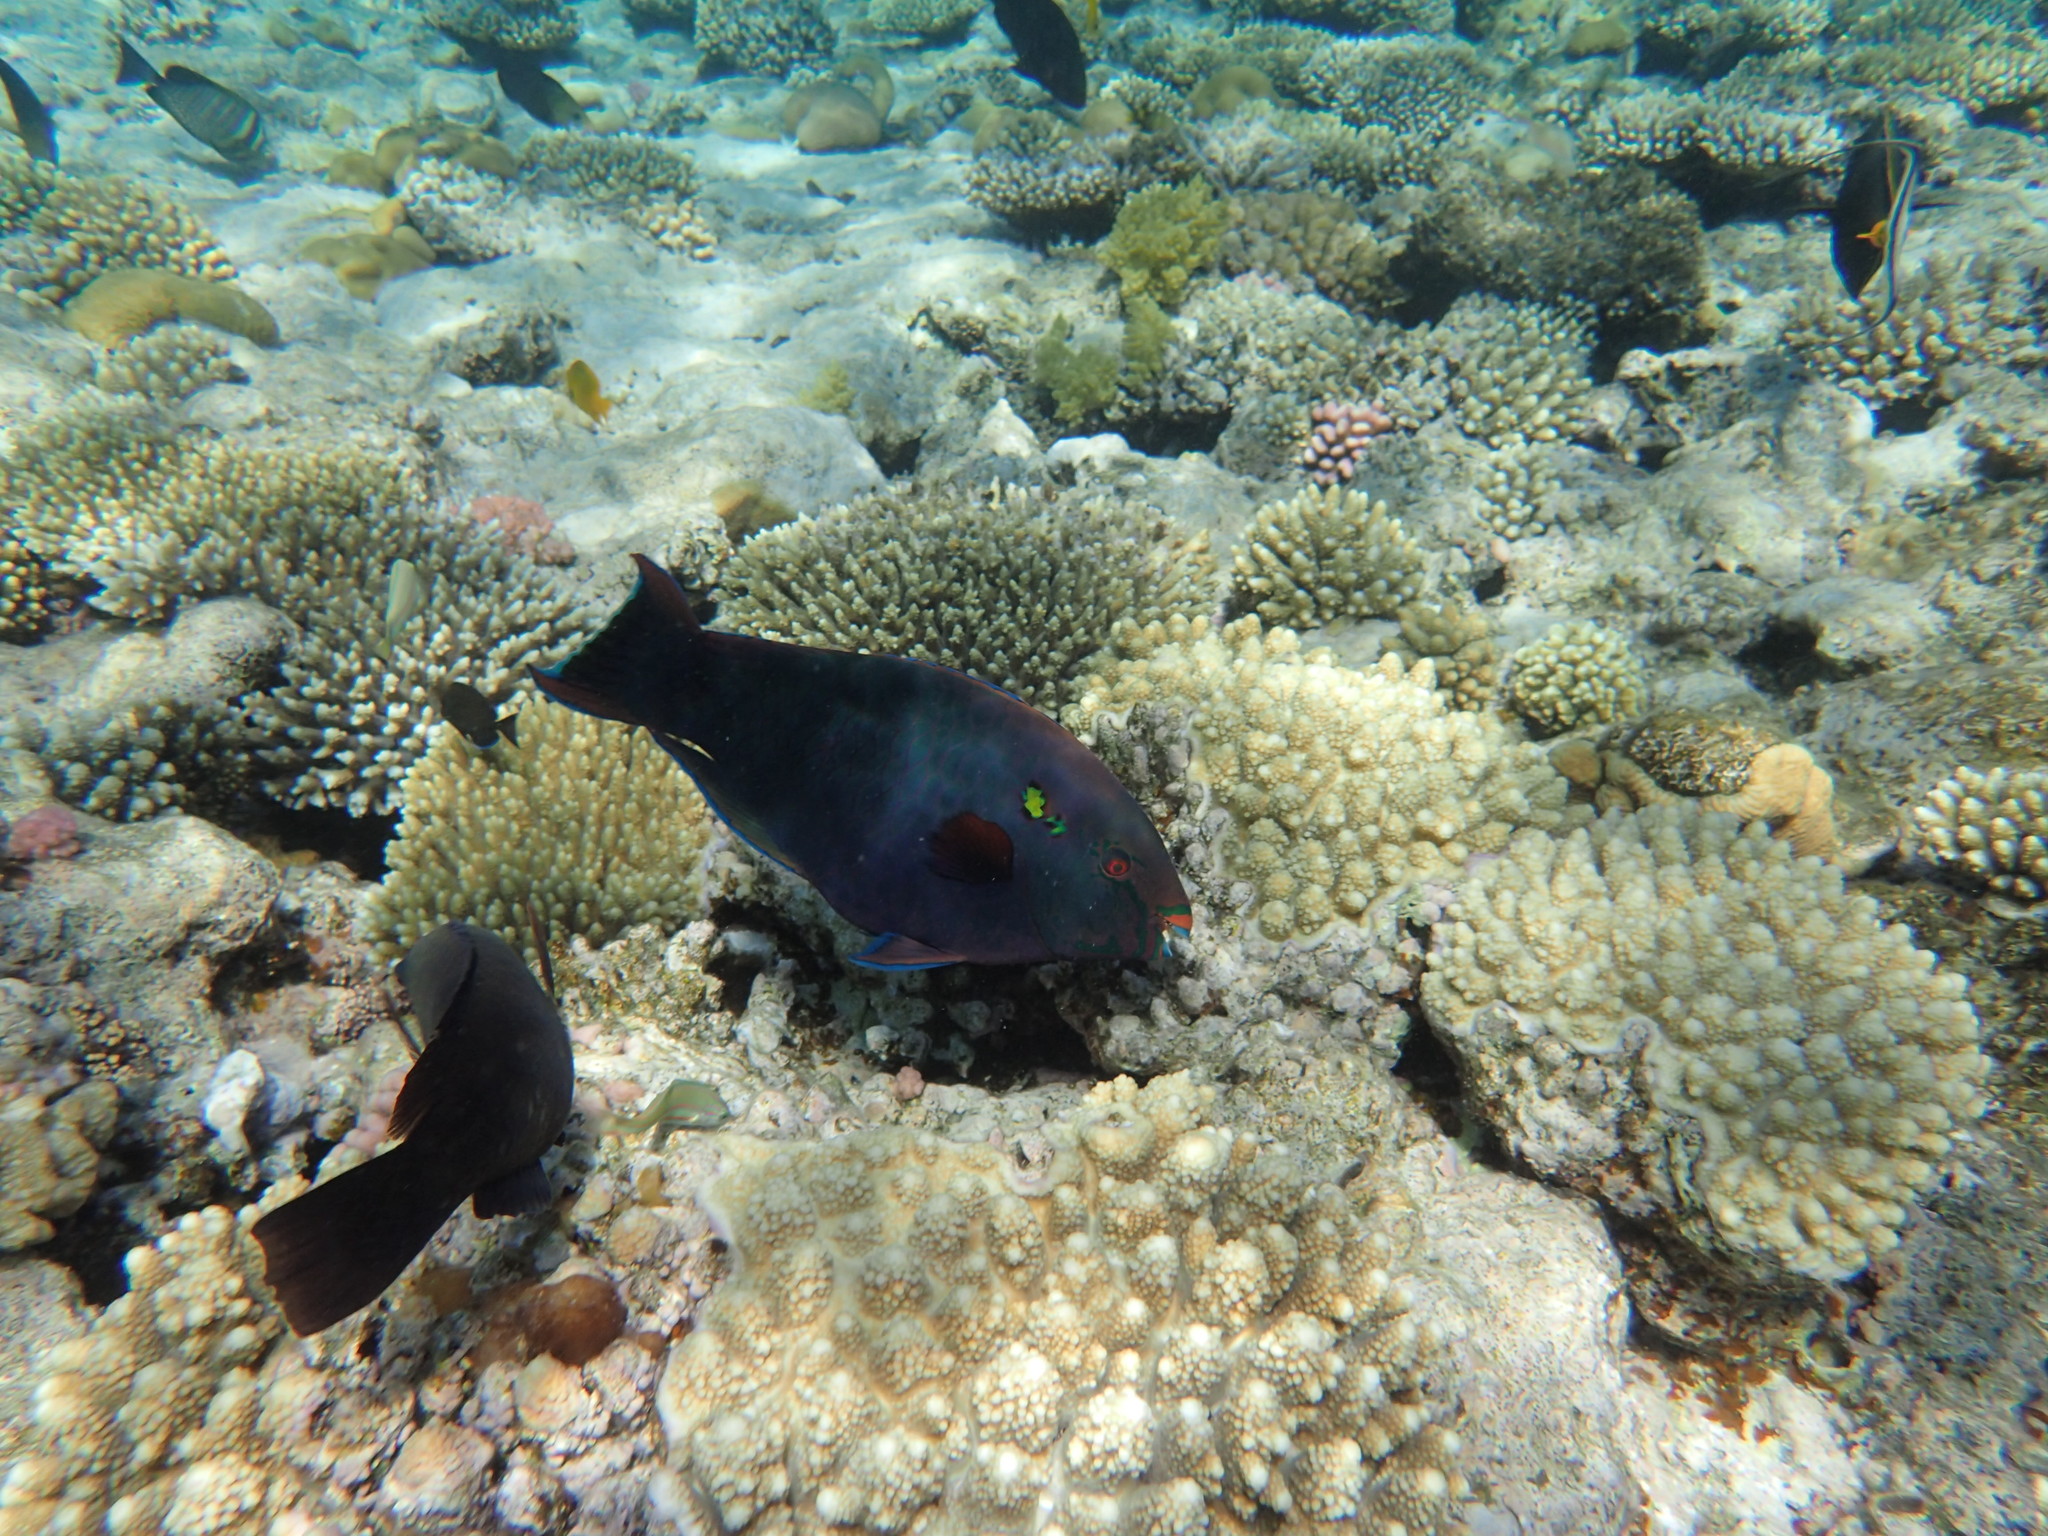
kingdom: Animalia
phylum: Chordata
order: Perciformes
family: Scaridae
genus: Scarus
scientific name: Scarus niger
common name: Dusky parrotfish
